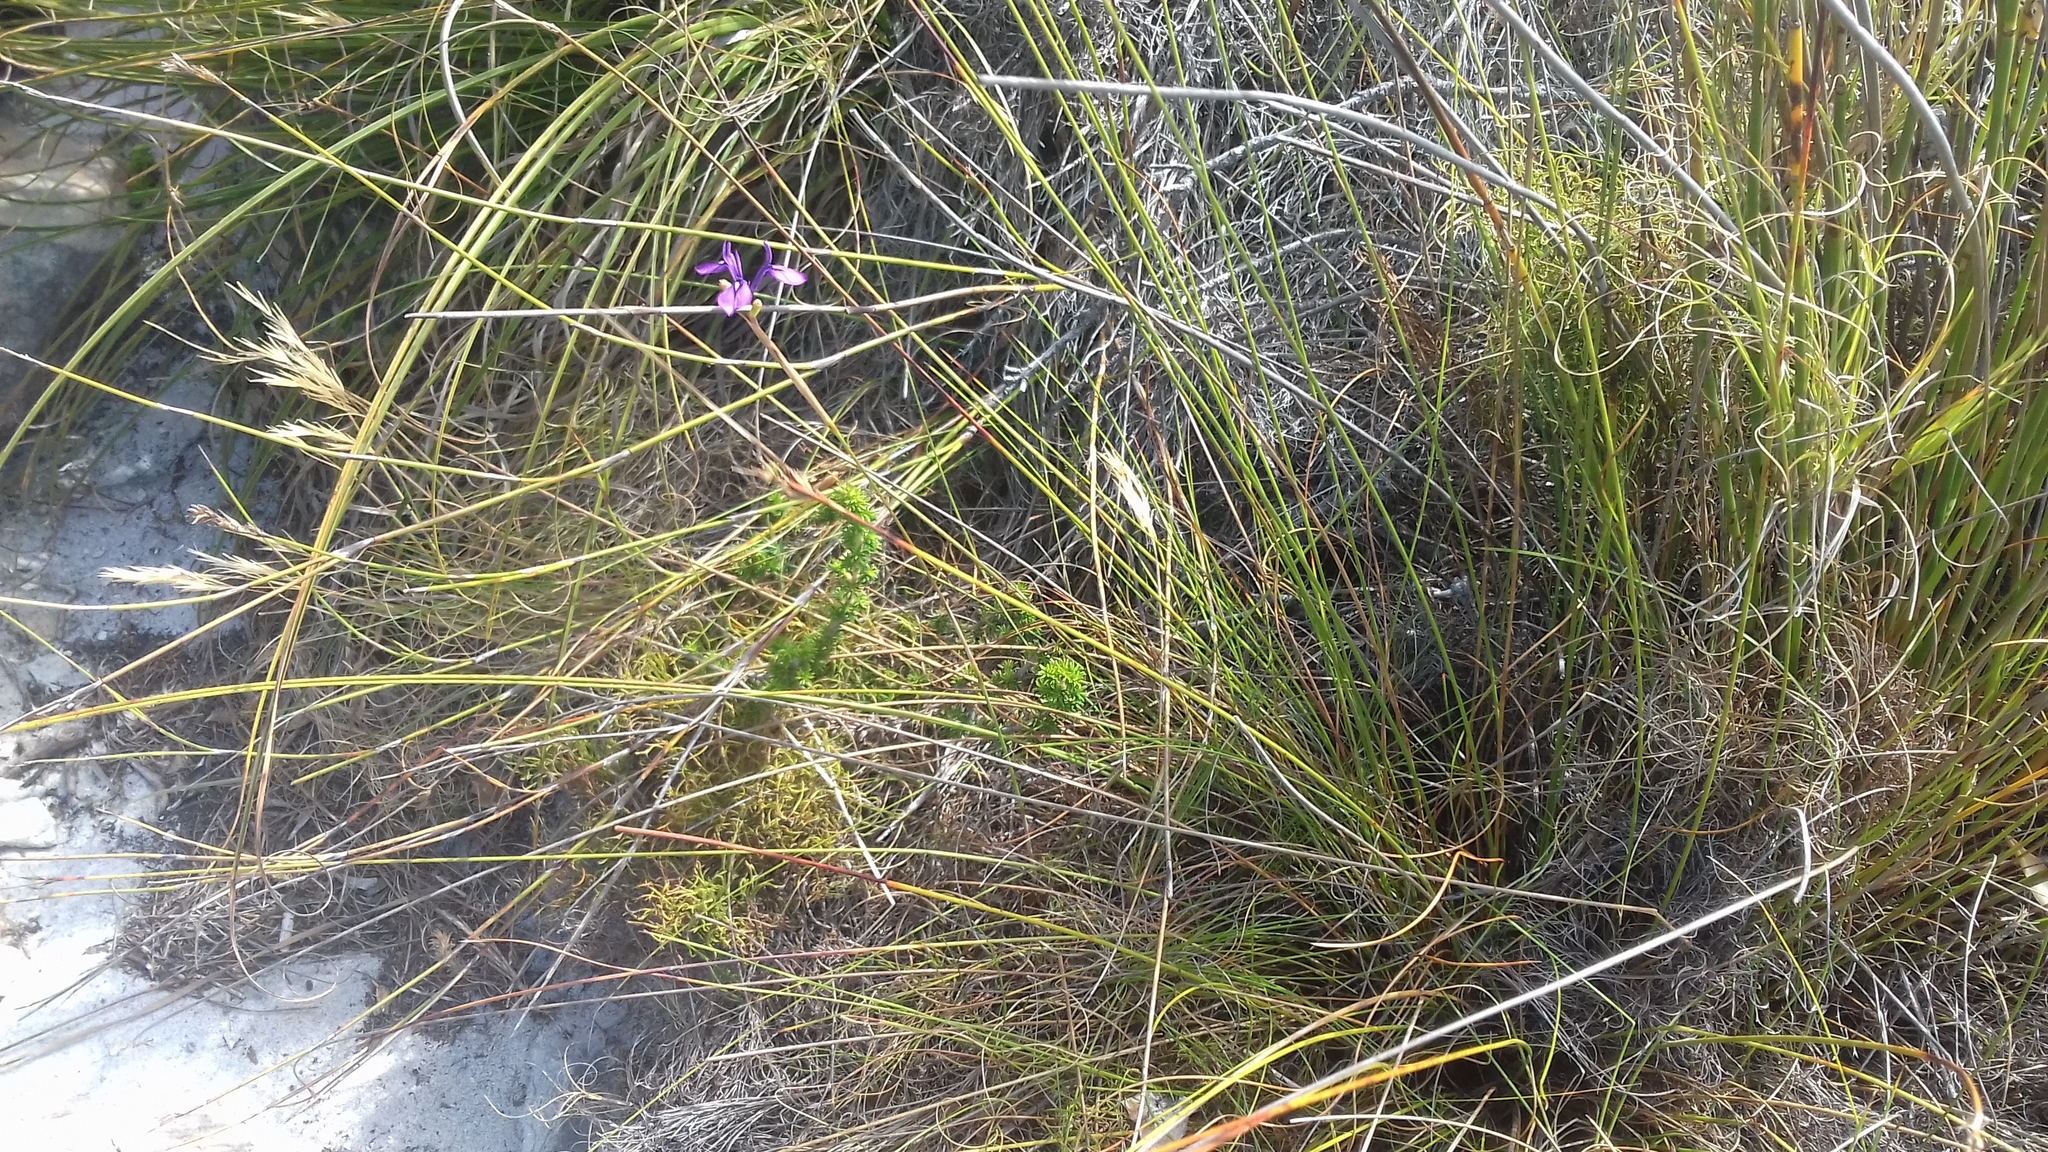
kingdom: Plantae
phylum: Tracheophyta
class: Liliopsida
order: Asparagales
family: Iridaceae
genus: Moraea
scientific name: Moraea tripetala
